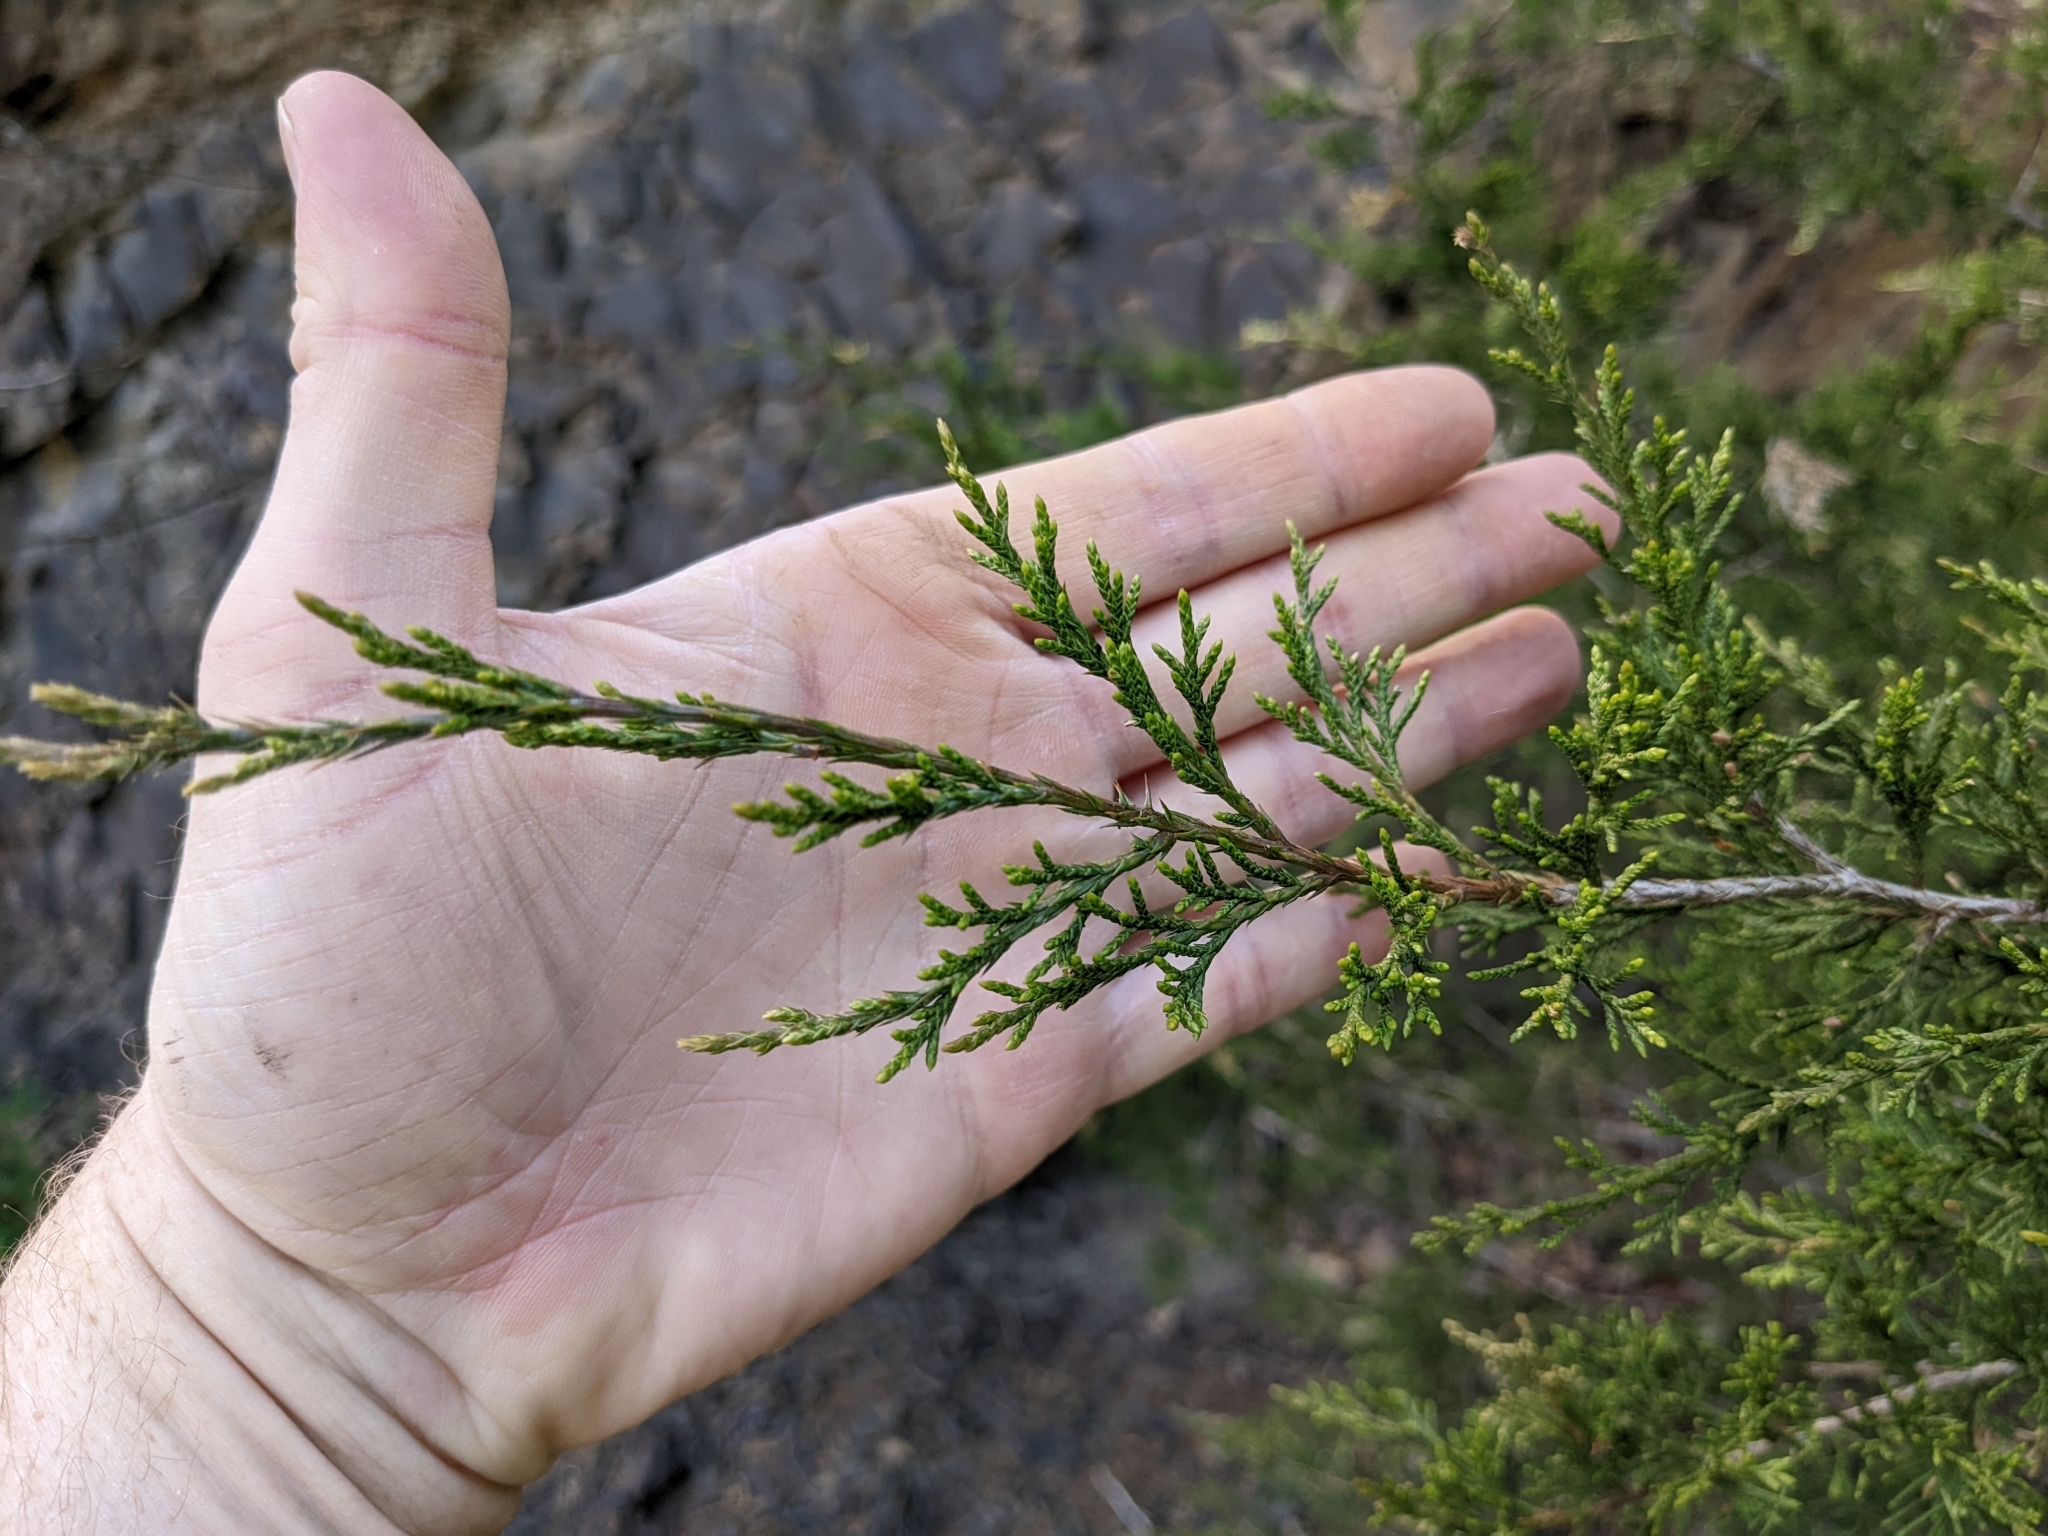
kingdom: Plantae
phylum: Tracheophyta
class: Pinopsida
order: Pinales
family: Cupressaceae
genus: Juniperus
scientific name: Juniperus virginiana
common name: Red juniper
